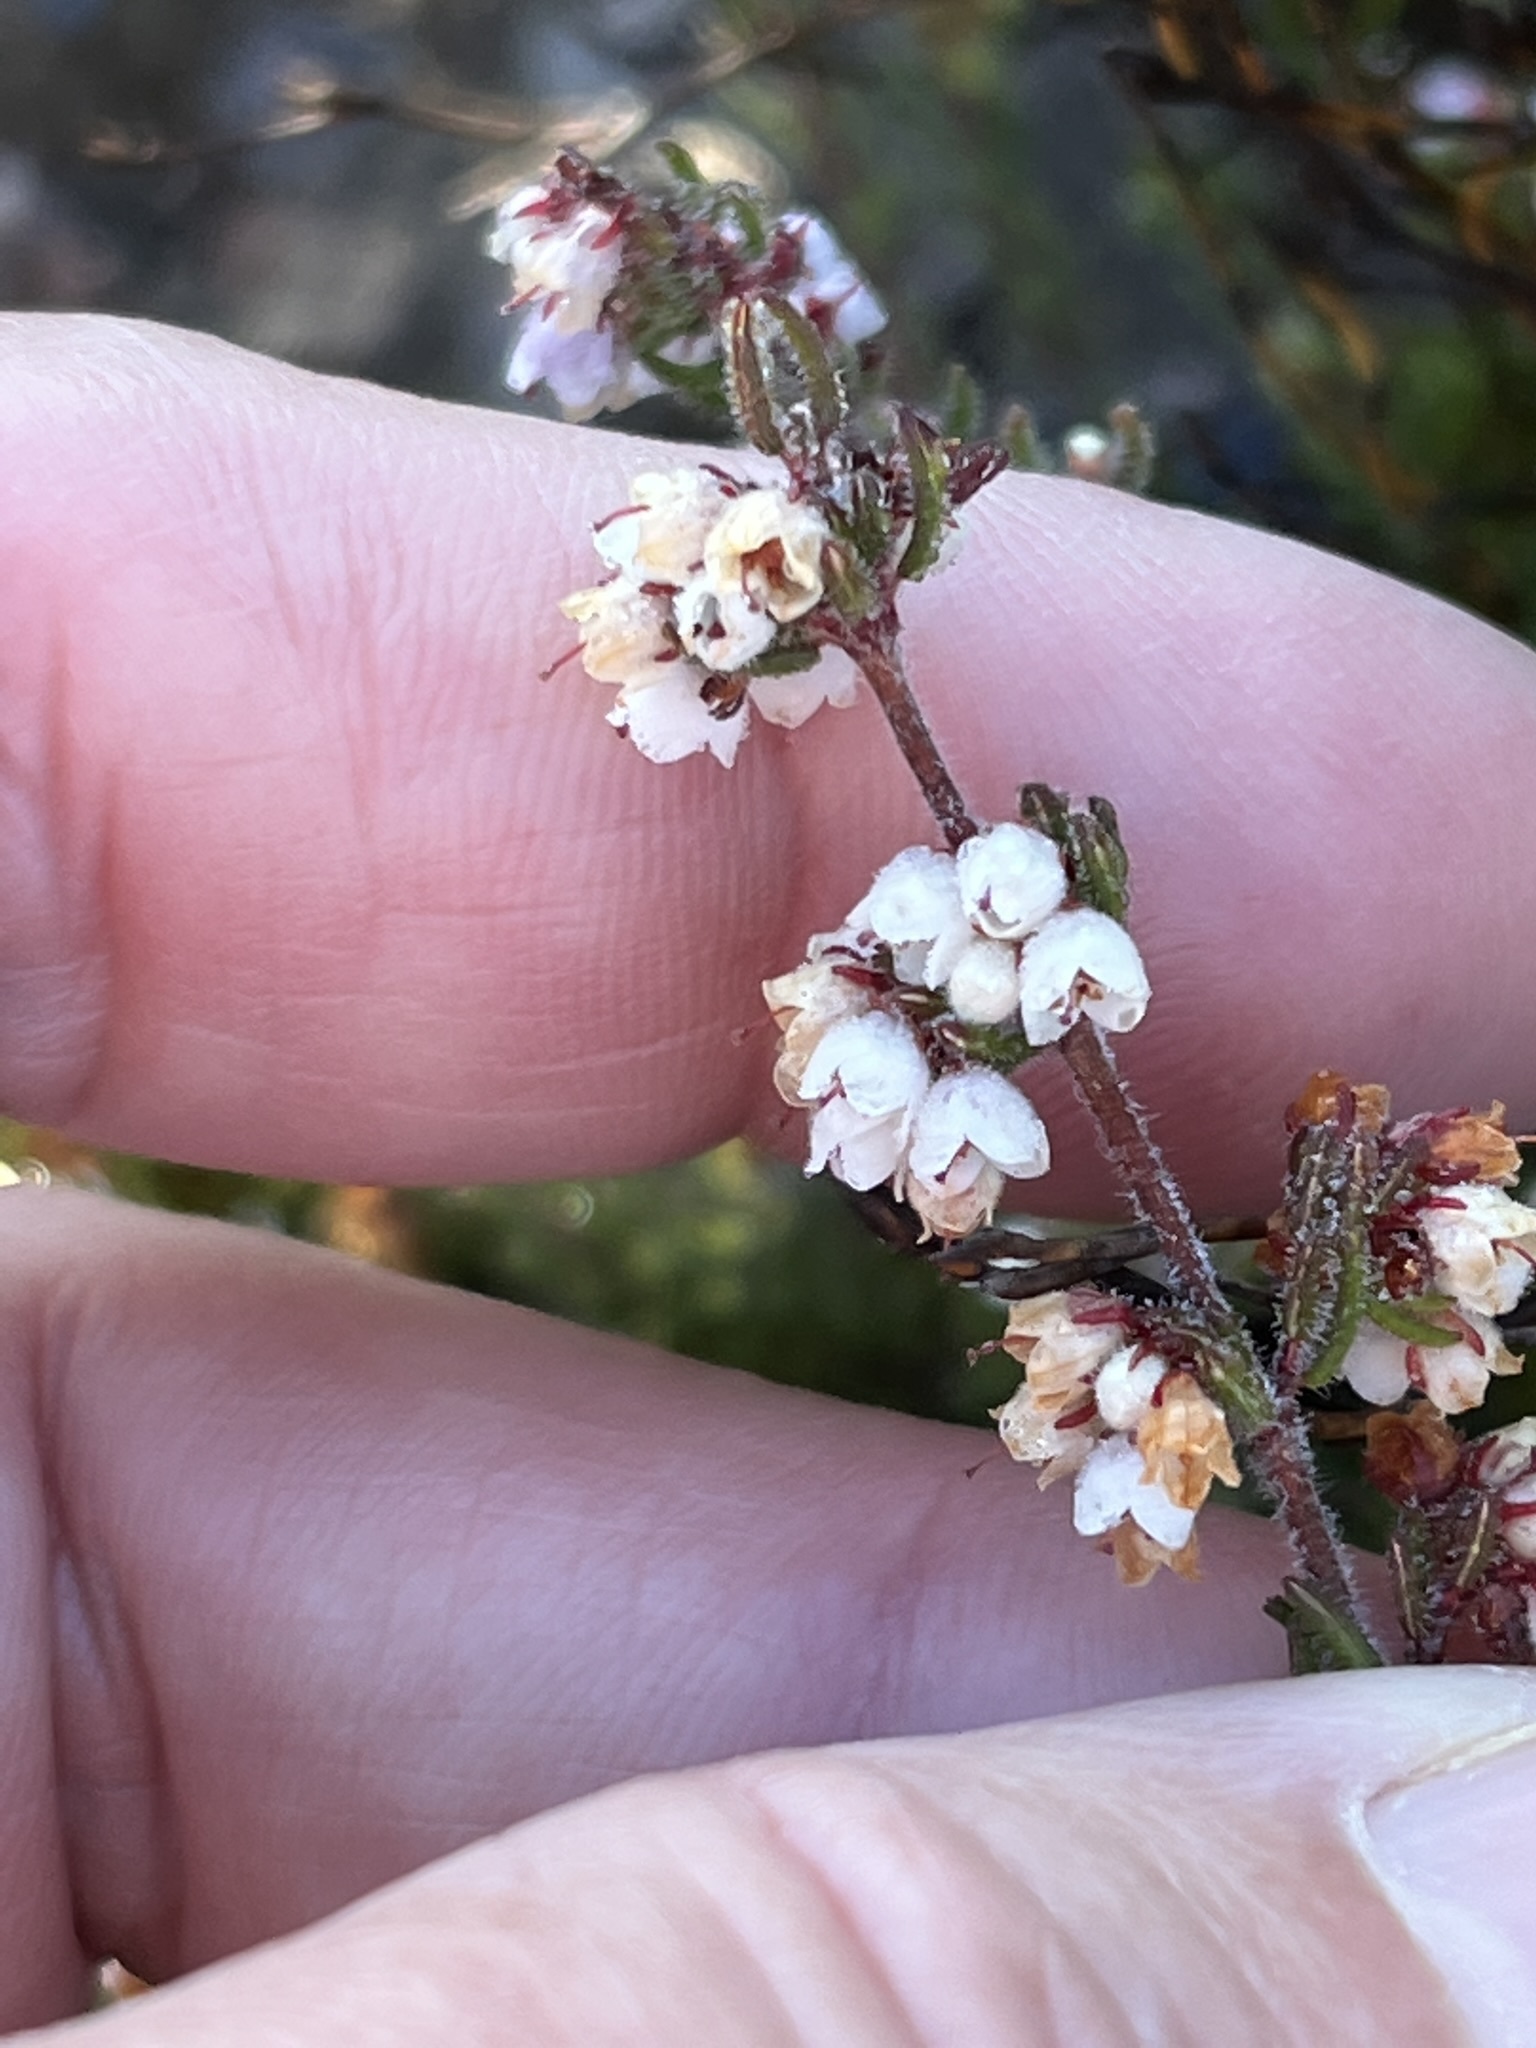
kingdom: Plantae
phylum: Tracheophyta
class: Magnoliopsida
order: Ericales
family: Ericaceae
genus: Erica
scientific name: Erica distorta
